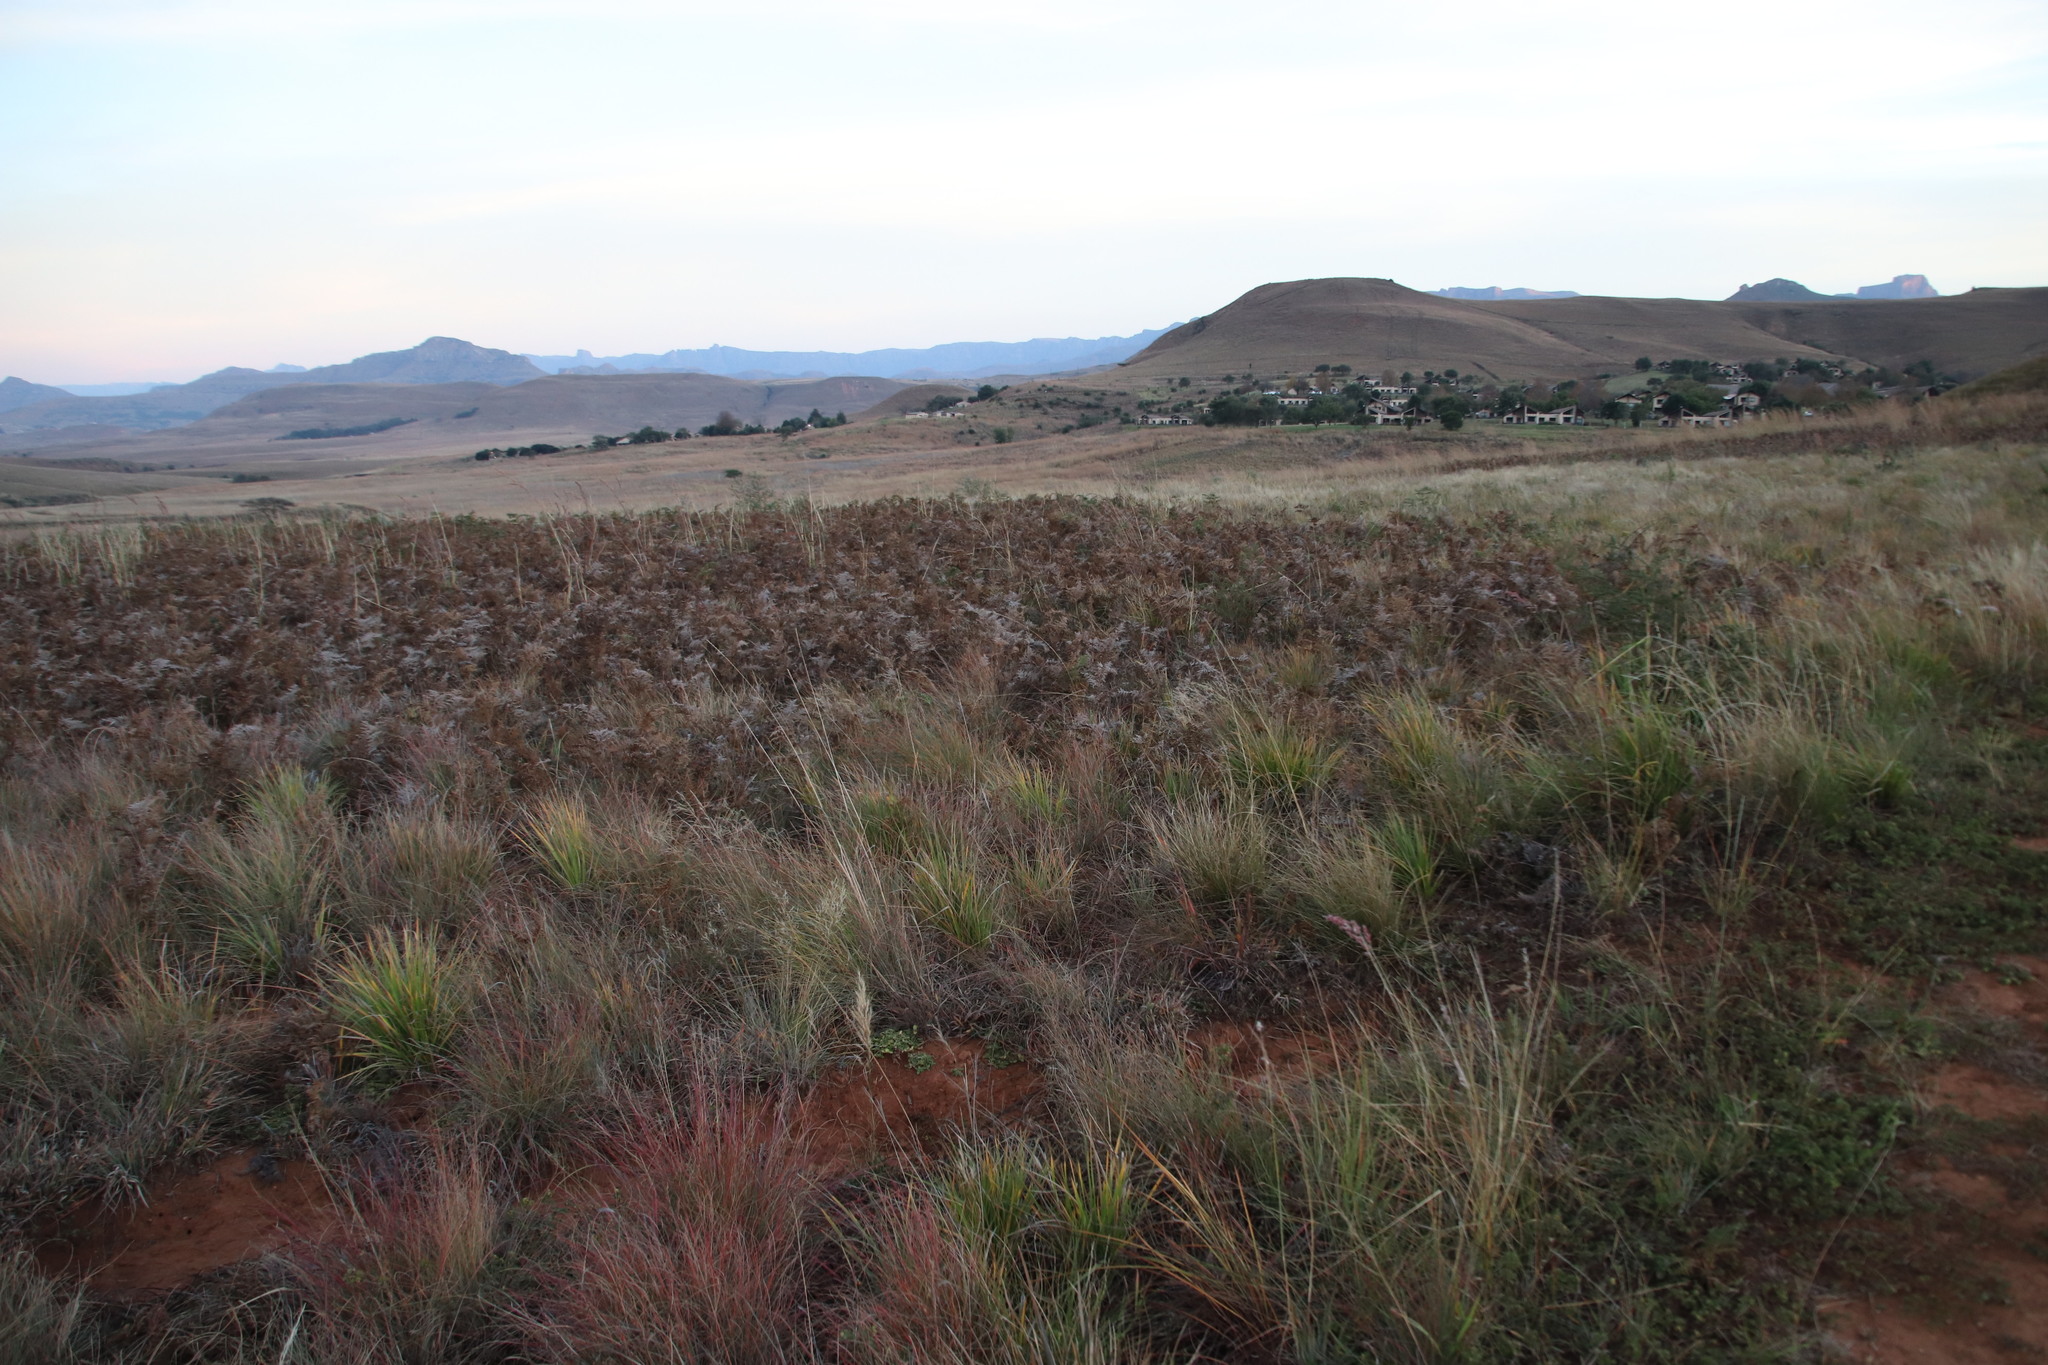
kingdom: Plantae
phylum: Tracheophyta
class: Polypodiopsida
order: Polypodiales
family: Dennstaedtiaceae
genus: Pteridium
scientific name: Pteridium aquilinum
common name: Bracken
